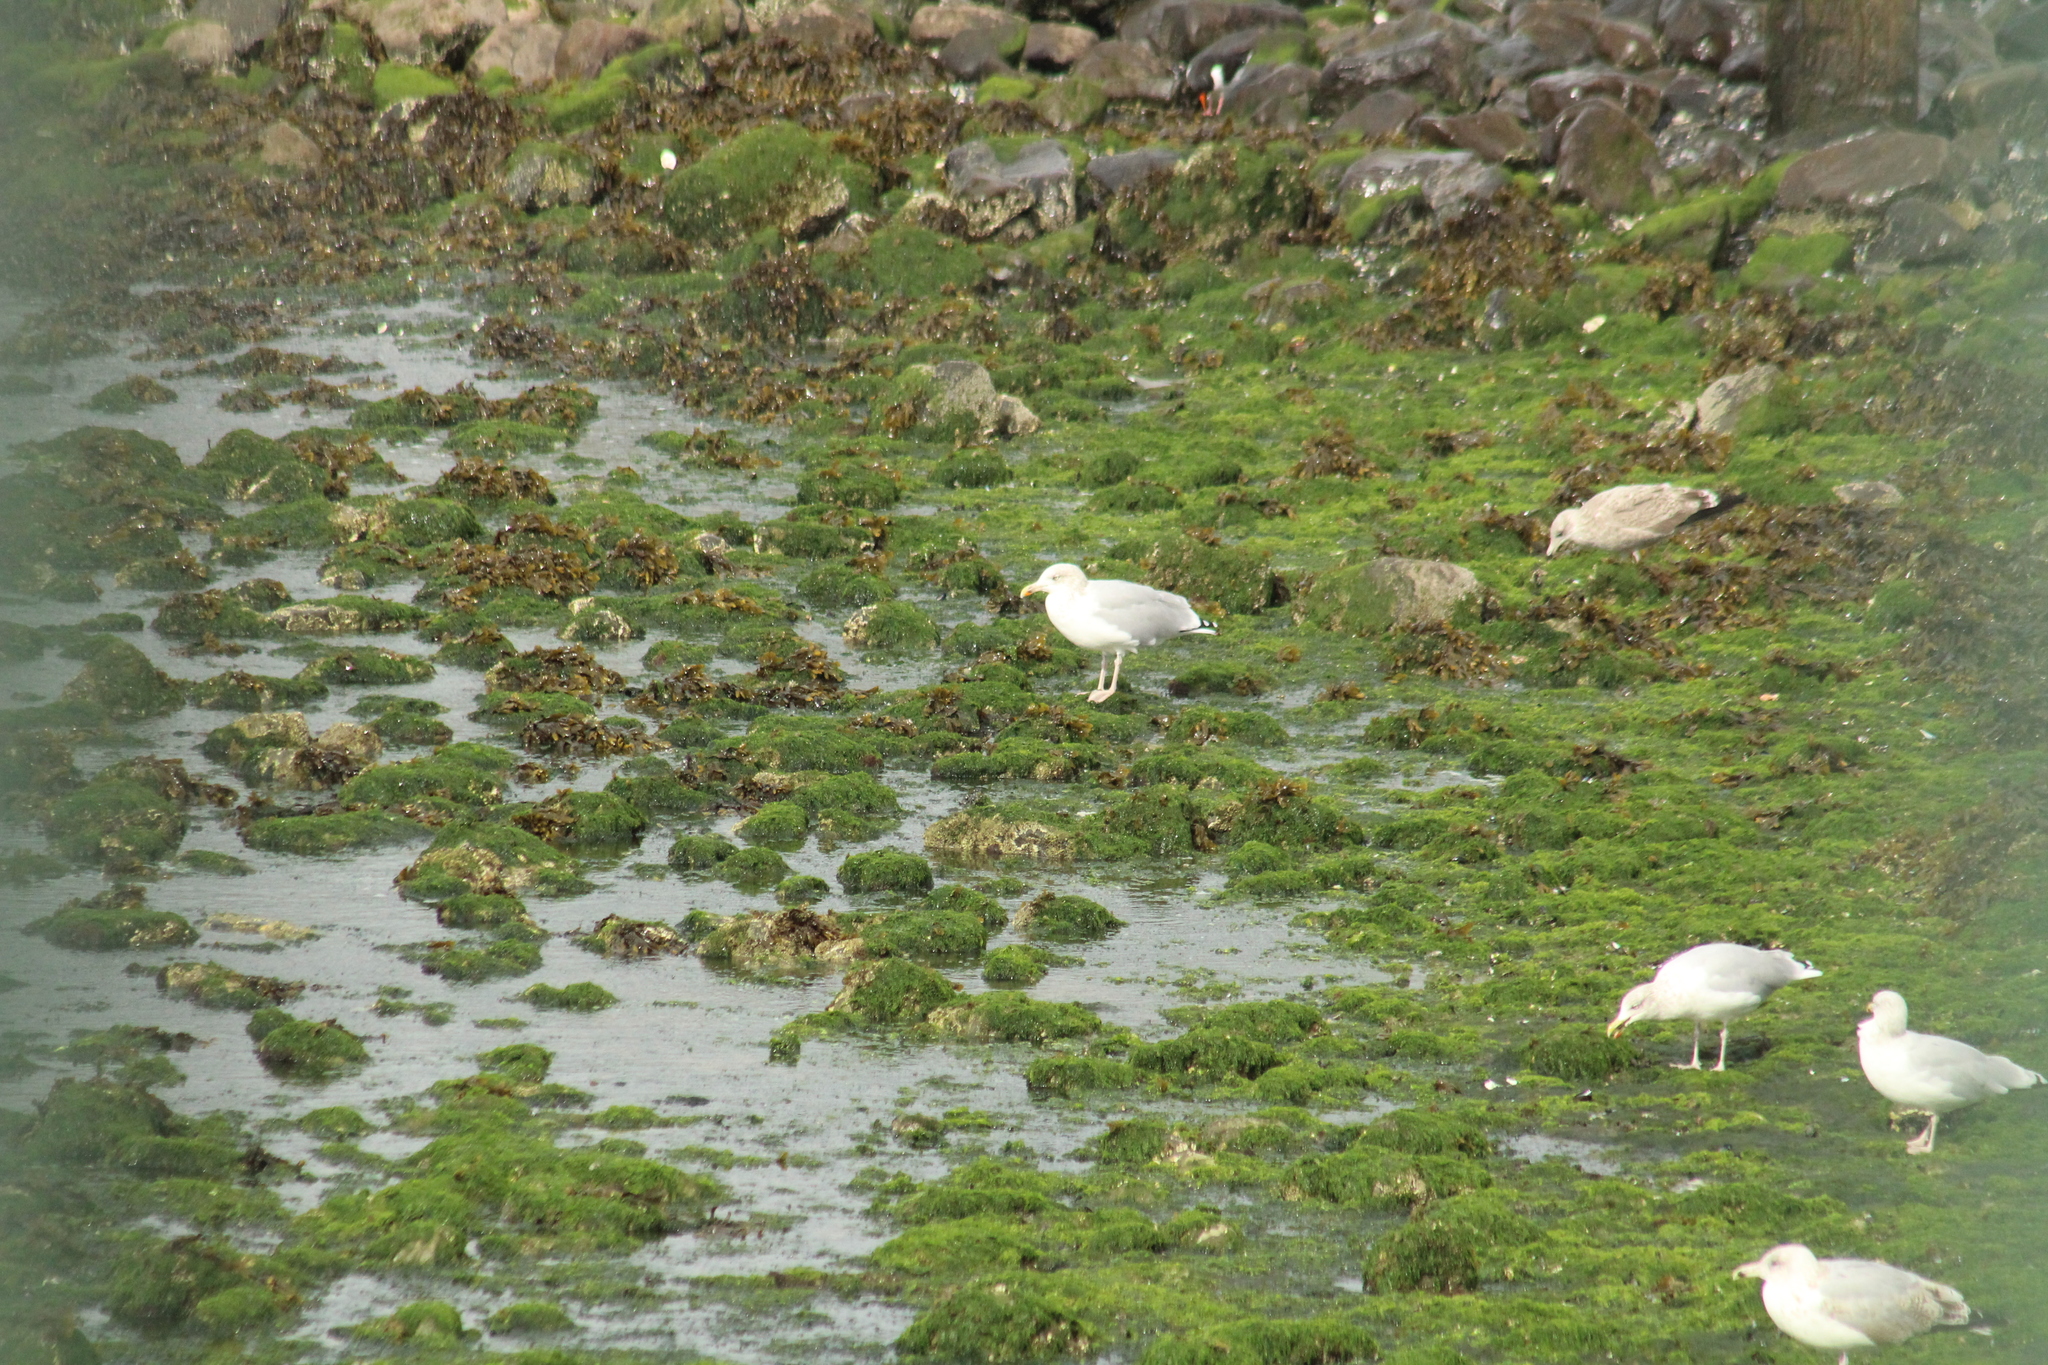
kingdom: Animalia
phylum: Chordata
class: Aves
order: Charadriiformes
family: Laridae
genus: Larus
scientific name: Larus argentatus
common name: Herring gull
